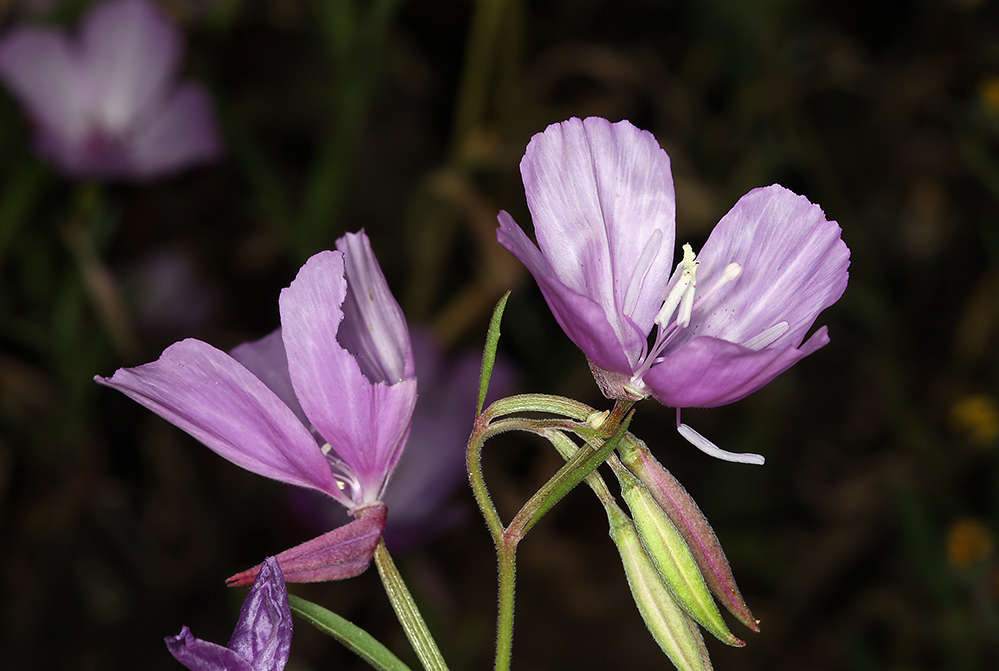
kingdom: Plantae
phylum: Tracheophyta
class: Magnoliopsida
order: Myrtales
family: Onagraceae
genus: Clarkia
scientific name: Clarkia dudleyana
